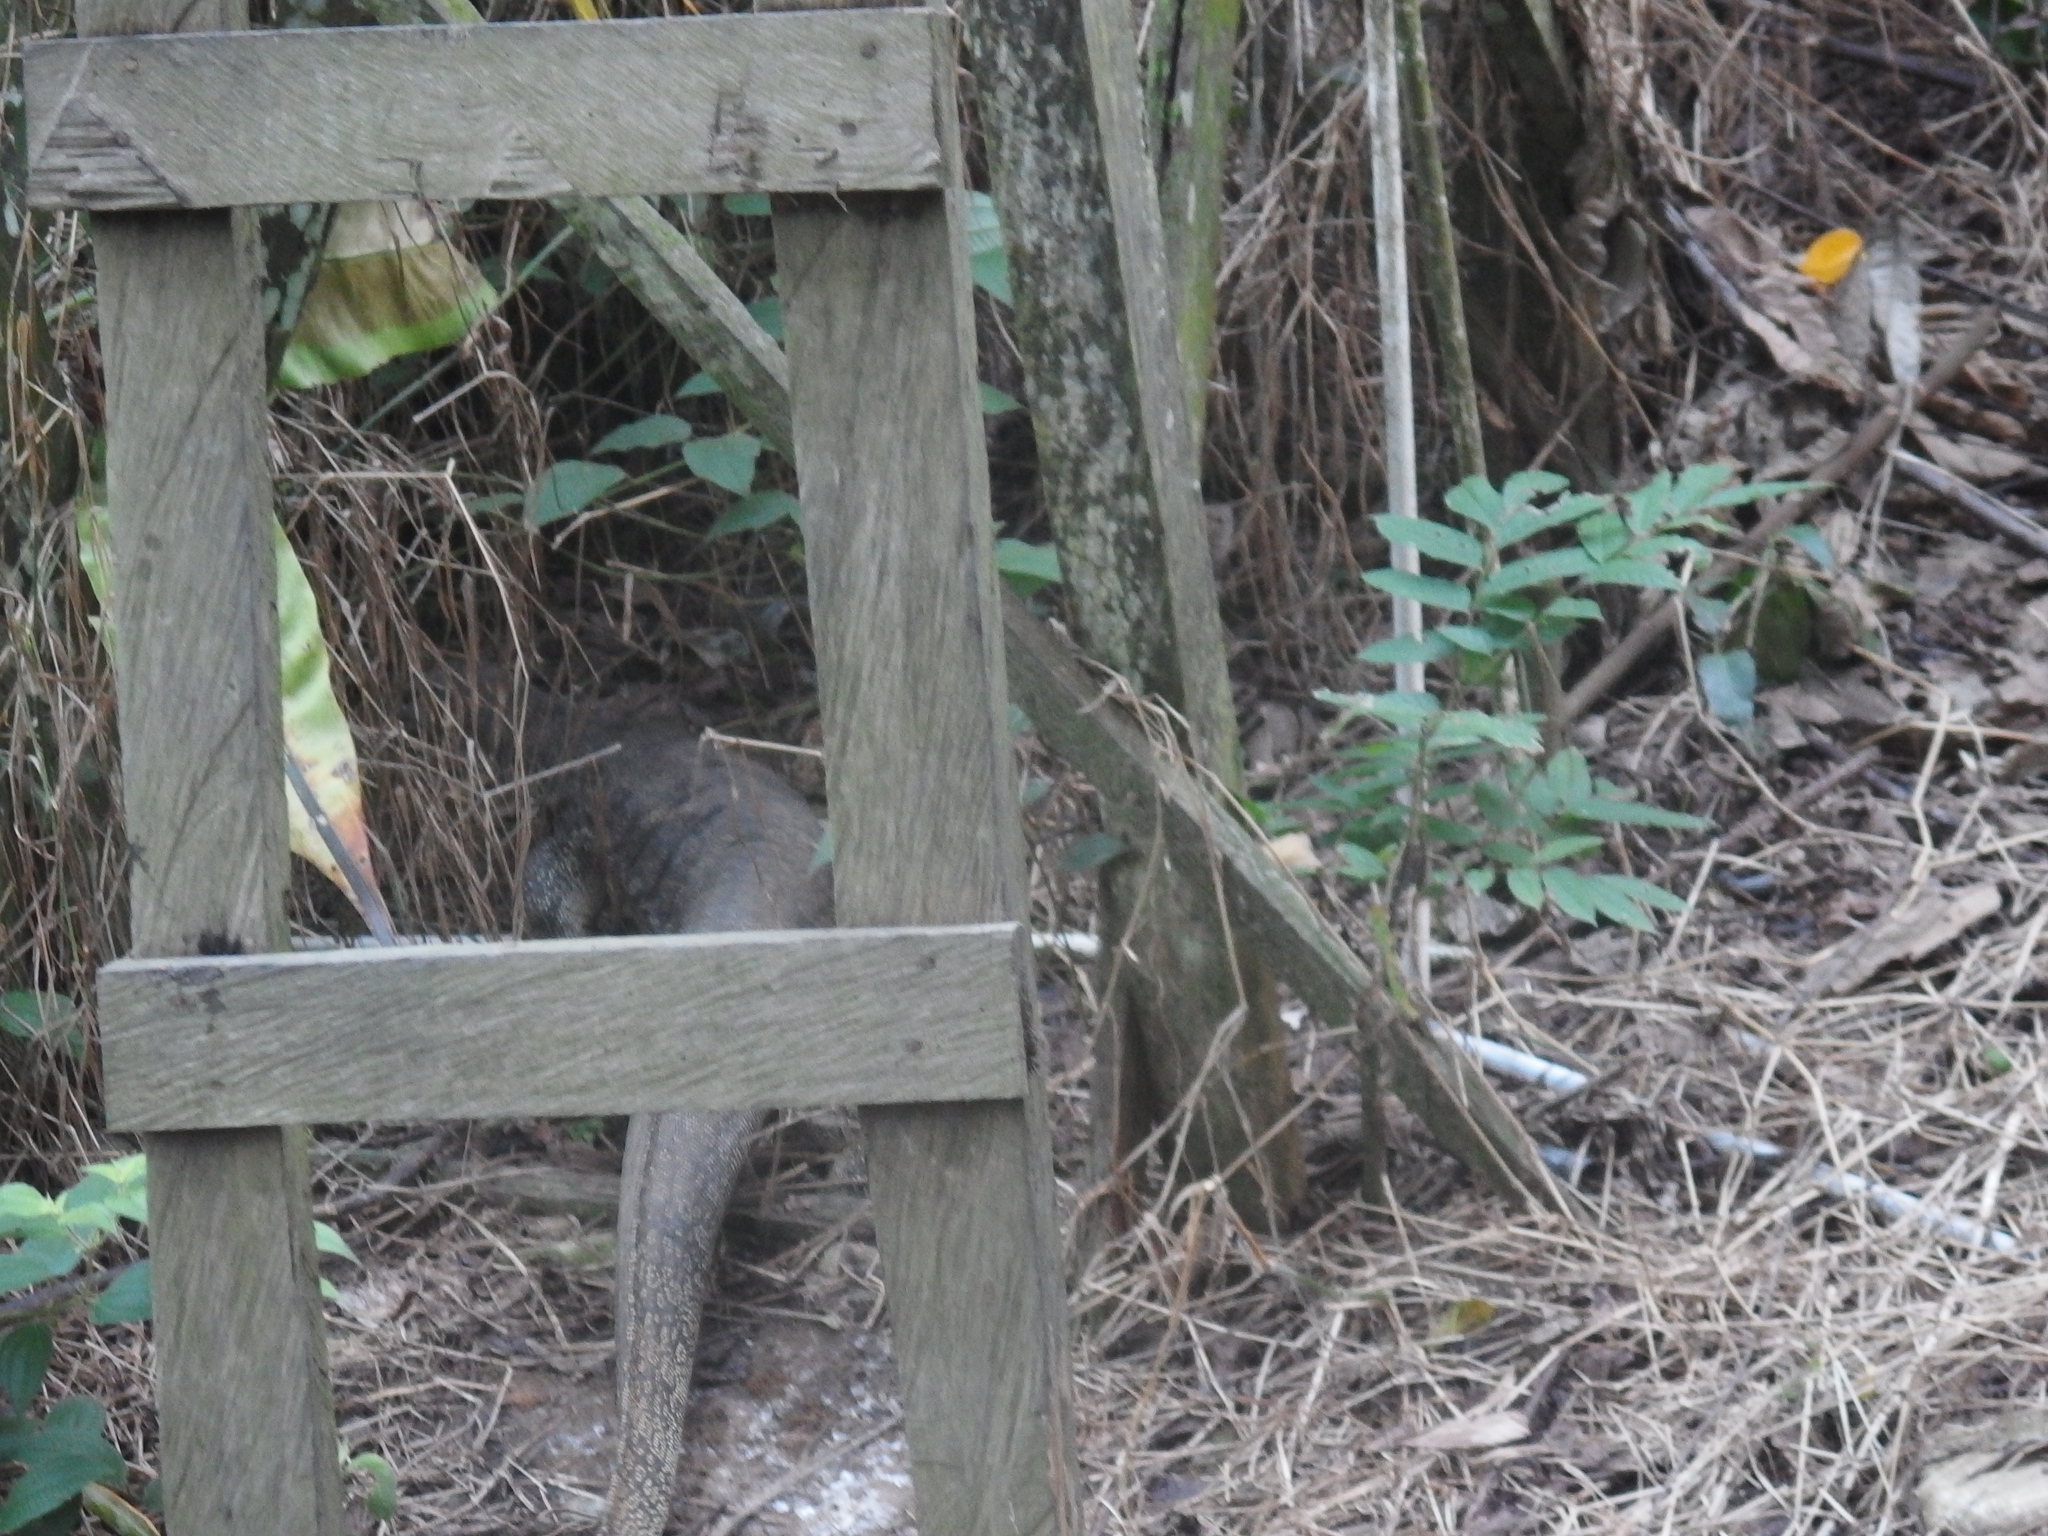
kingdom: Animalia
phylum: Chordata
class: Squamata
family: Varanidae
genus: Varanus
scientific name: Varanus salvator
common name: Common water monitor
